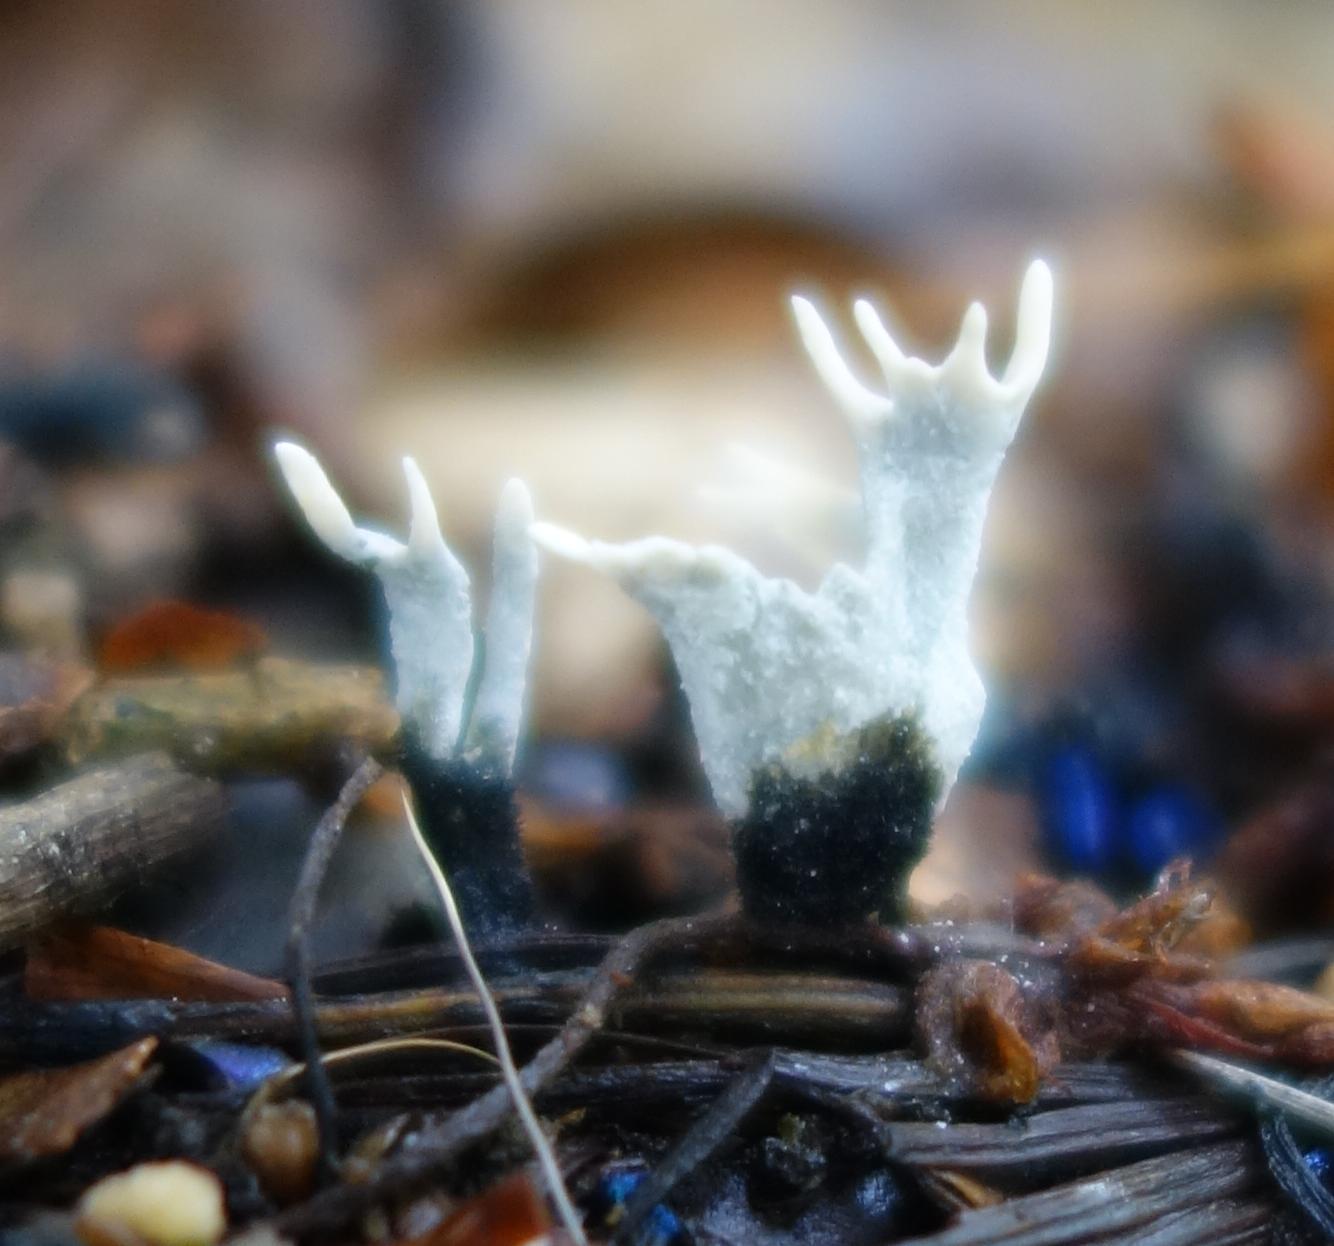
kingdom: Fungi
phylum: Ascomycota
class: Sordariomycetes
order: Xylariales
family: Xylariaceae
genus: Xylaria
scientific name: Xylaria hypoxylon
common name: Candle-snuff fungus
